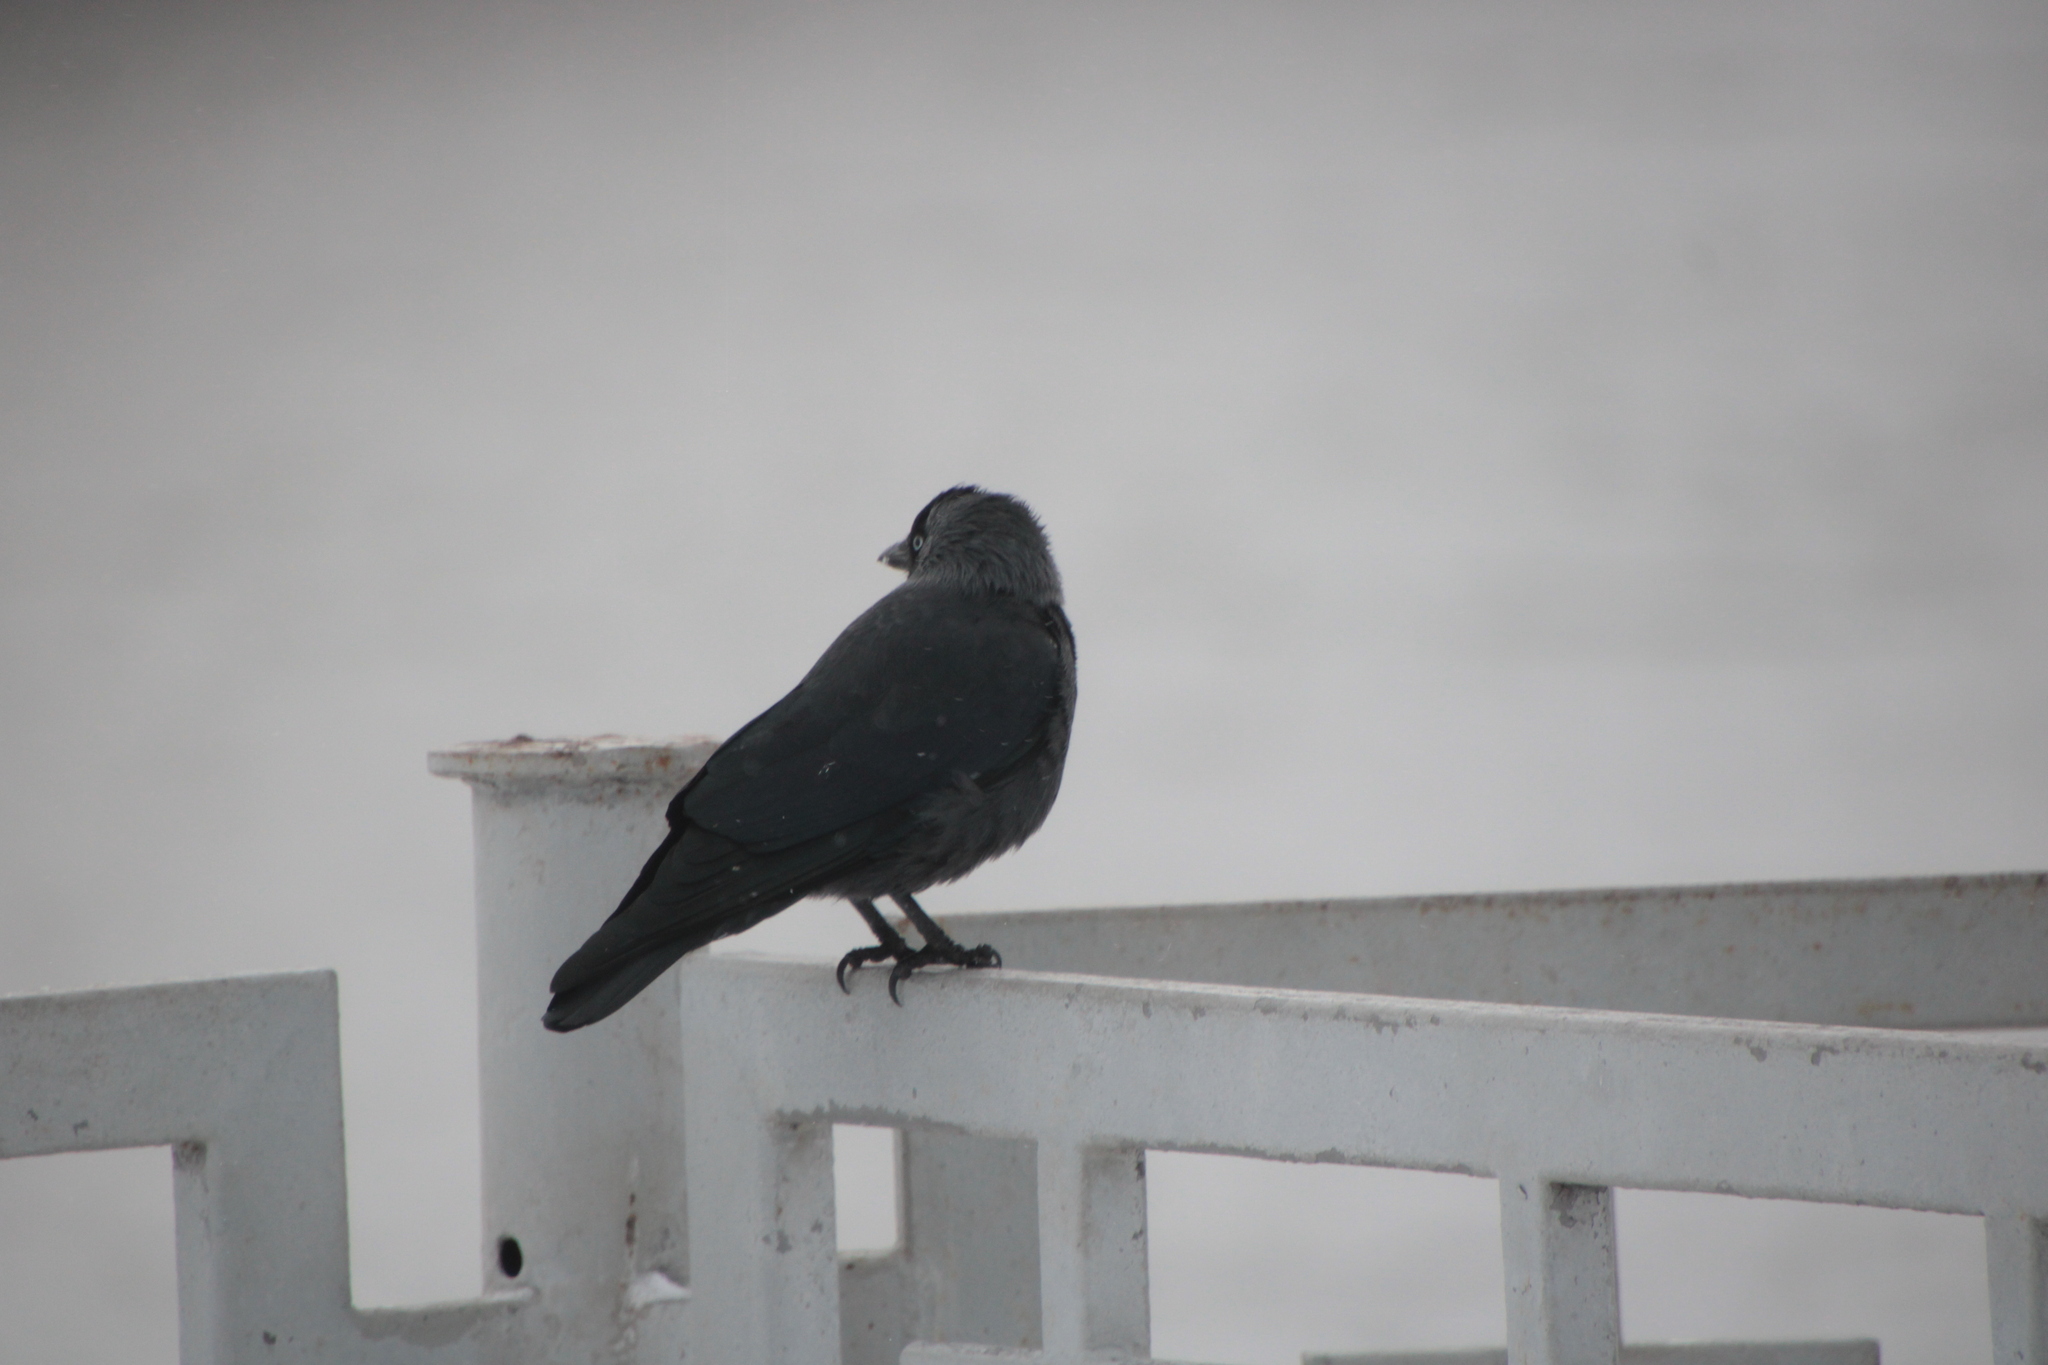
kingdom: Animalia
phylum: Chordata
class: Aves
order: Passeriformes
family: Corvidae
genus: Coloeus
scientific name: Coloeus monedula
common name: Western jackdaw
